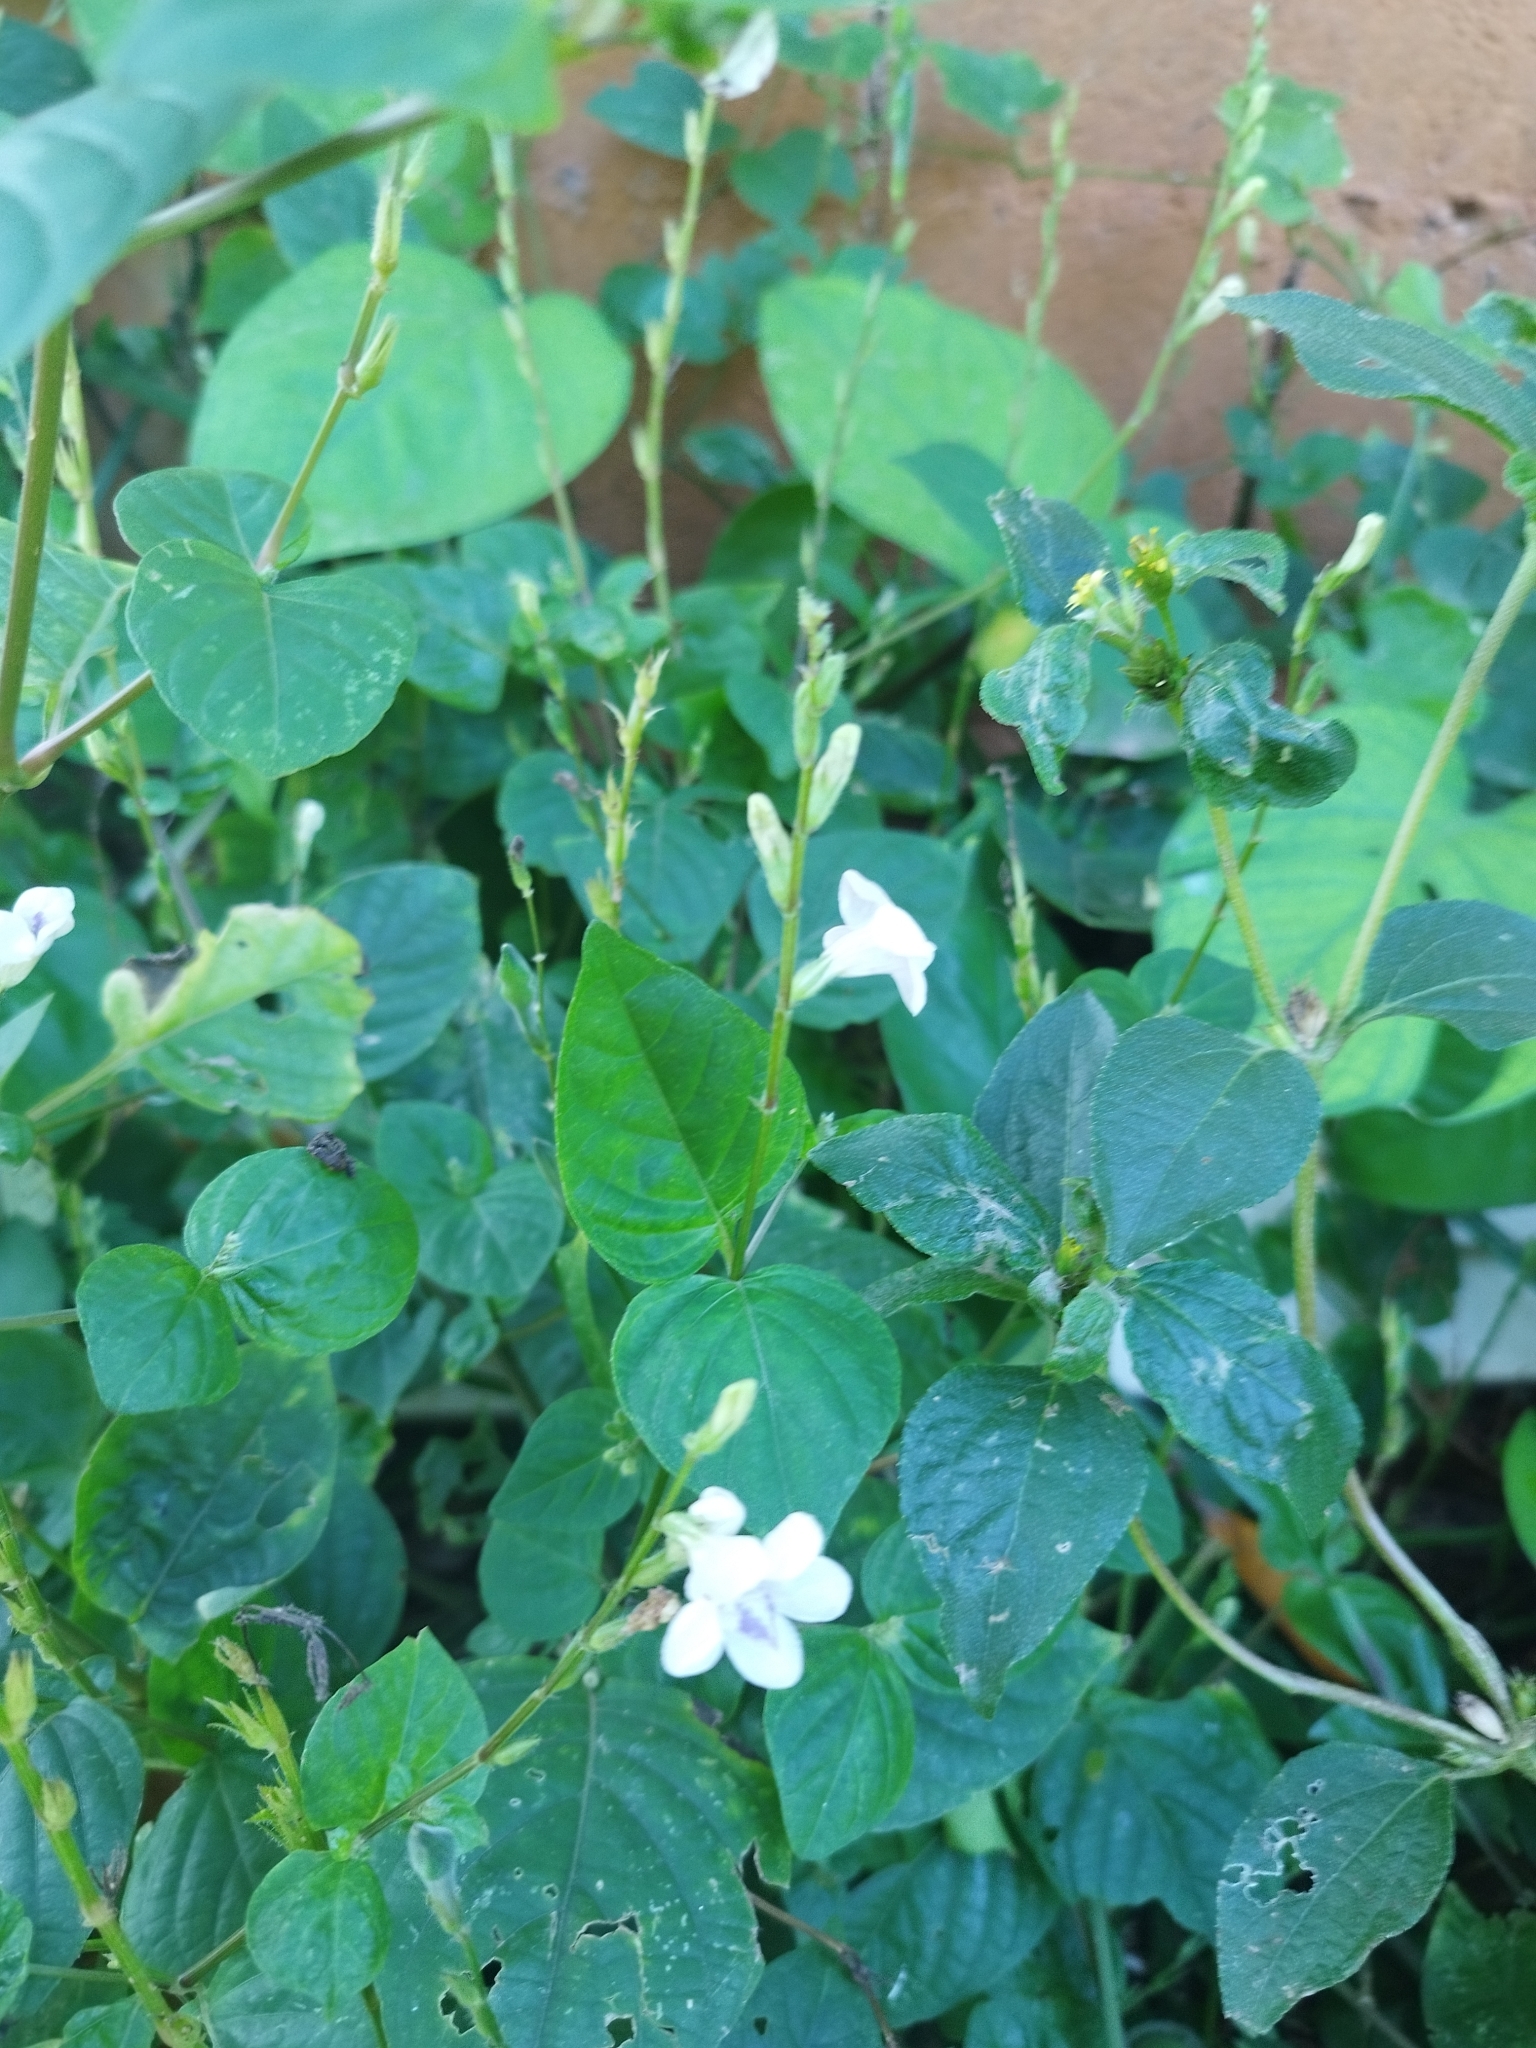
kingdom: Plantae
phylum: Tracheophyta
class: Magnoliopsida
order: Lamiales
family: Acanthaceae
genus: Asystasia
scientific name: Asystasia intrusa
